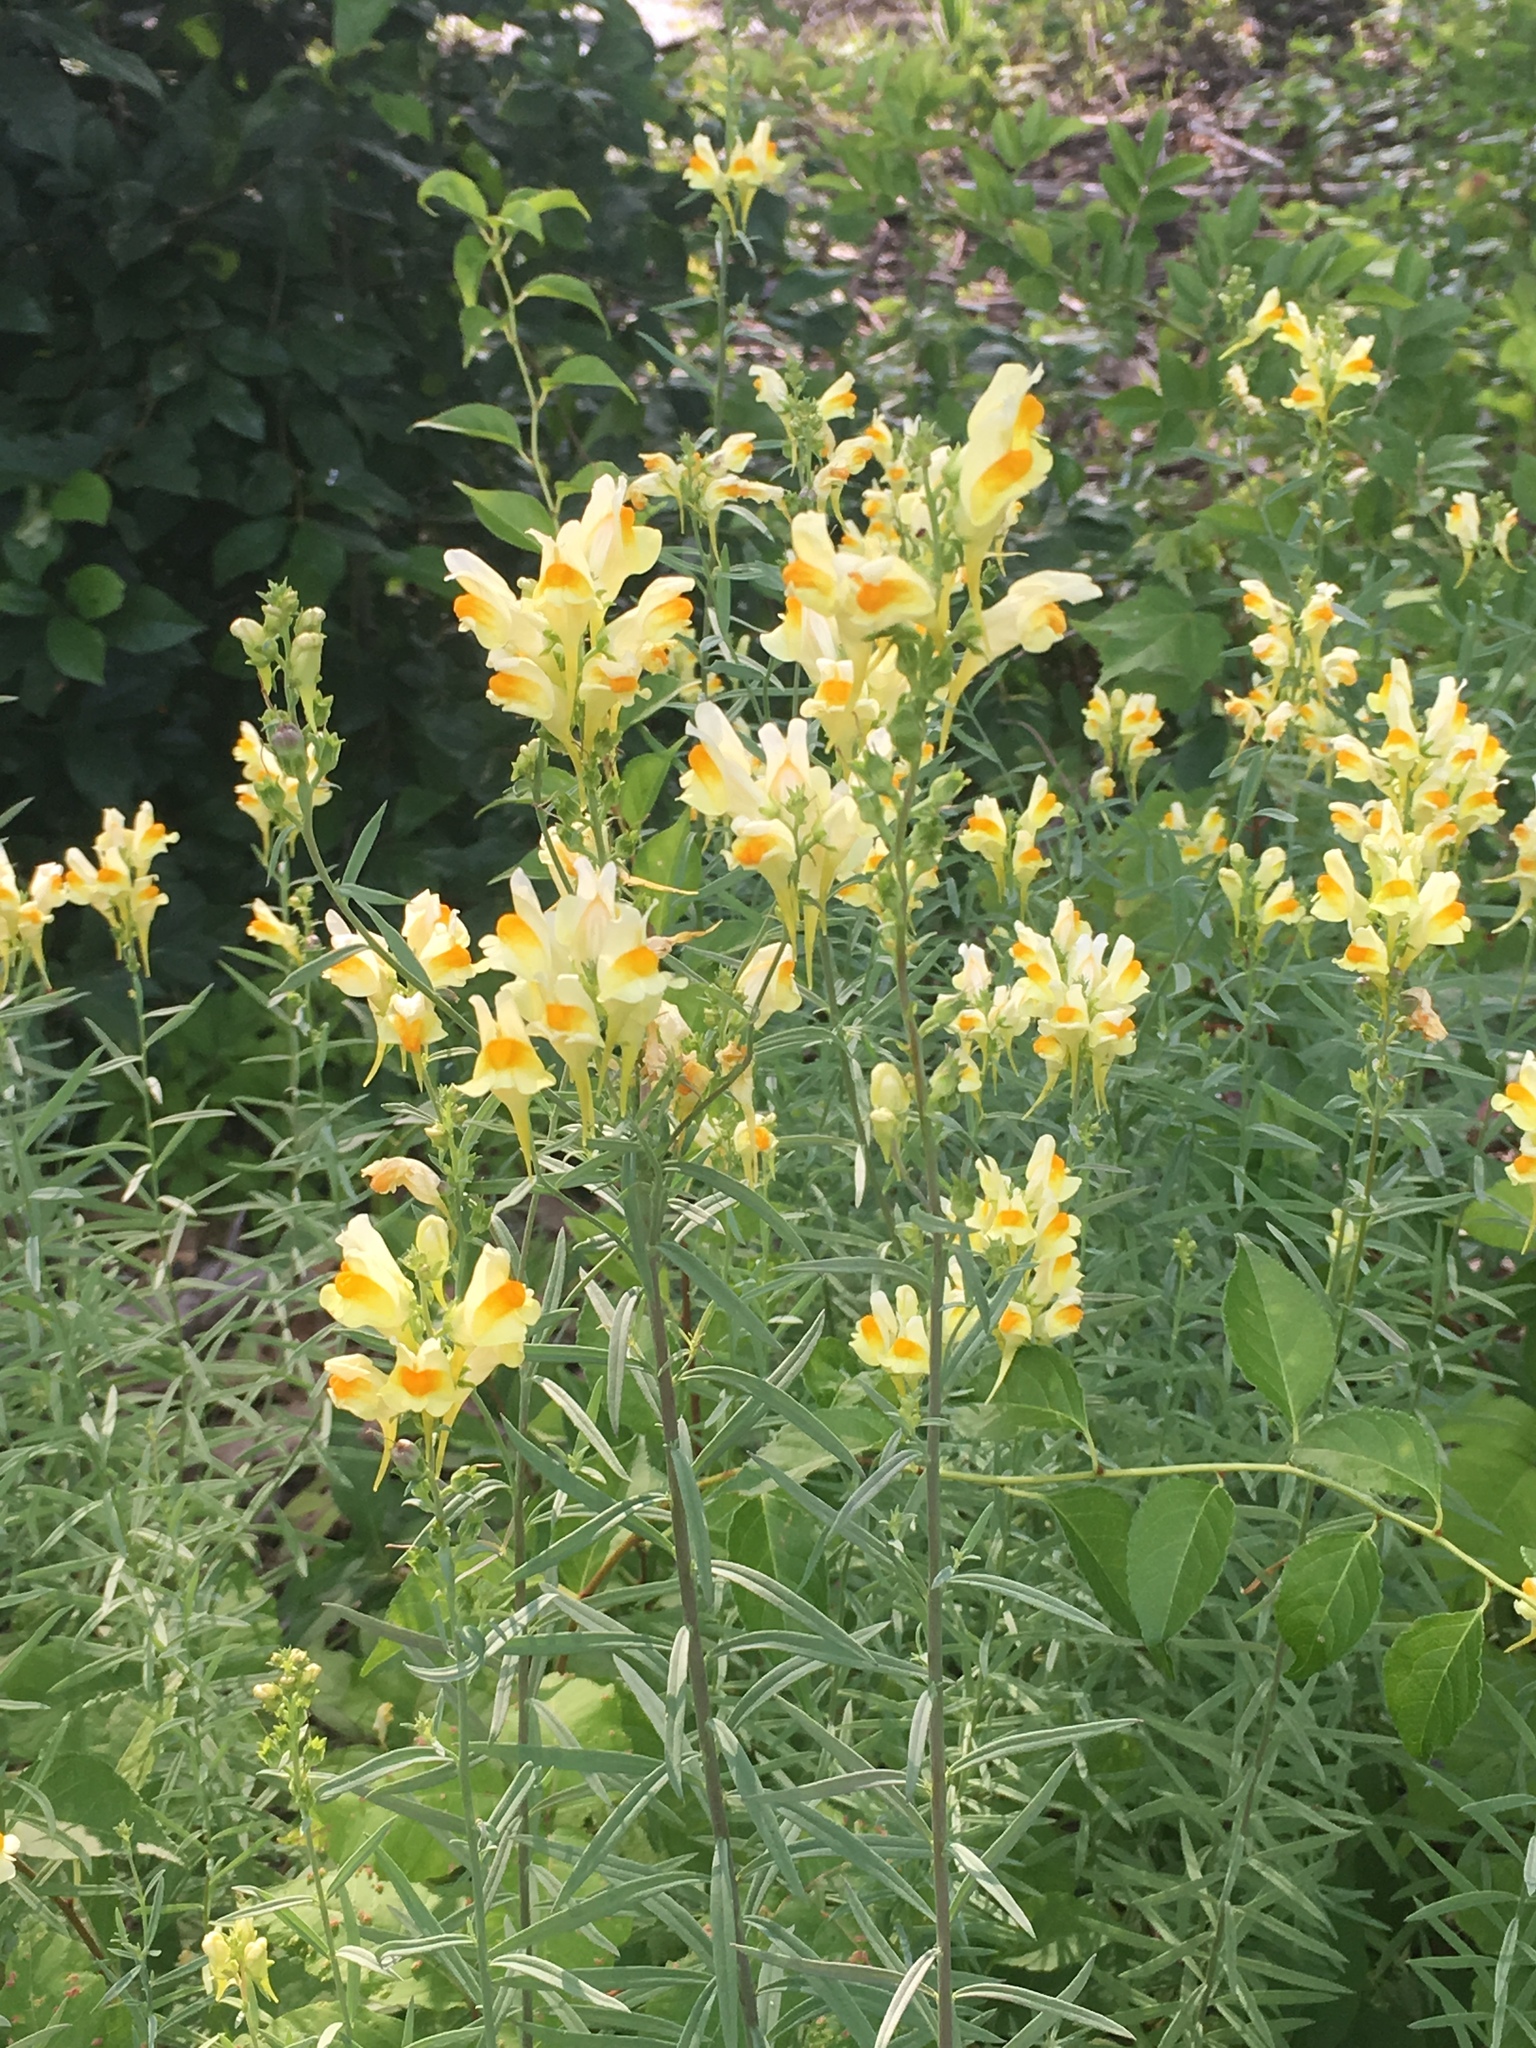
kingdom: Plantae
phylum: Tracheophyta
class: Magnoliopsida
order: Lamiales
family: Plantaginaceae
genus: Linaria
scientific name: Linaria vulgaris
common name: Butter and eggs
